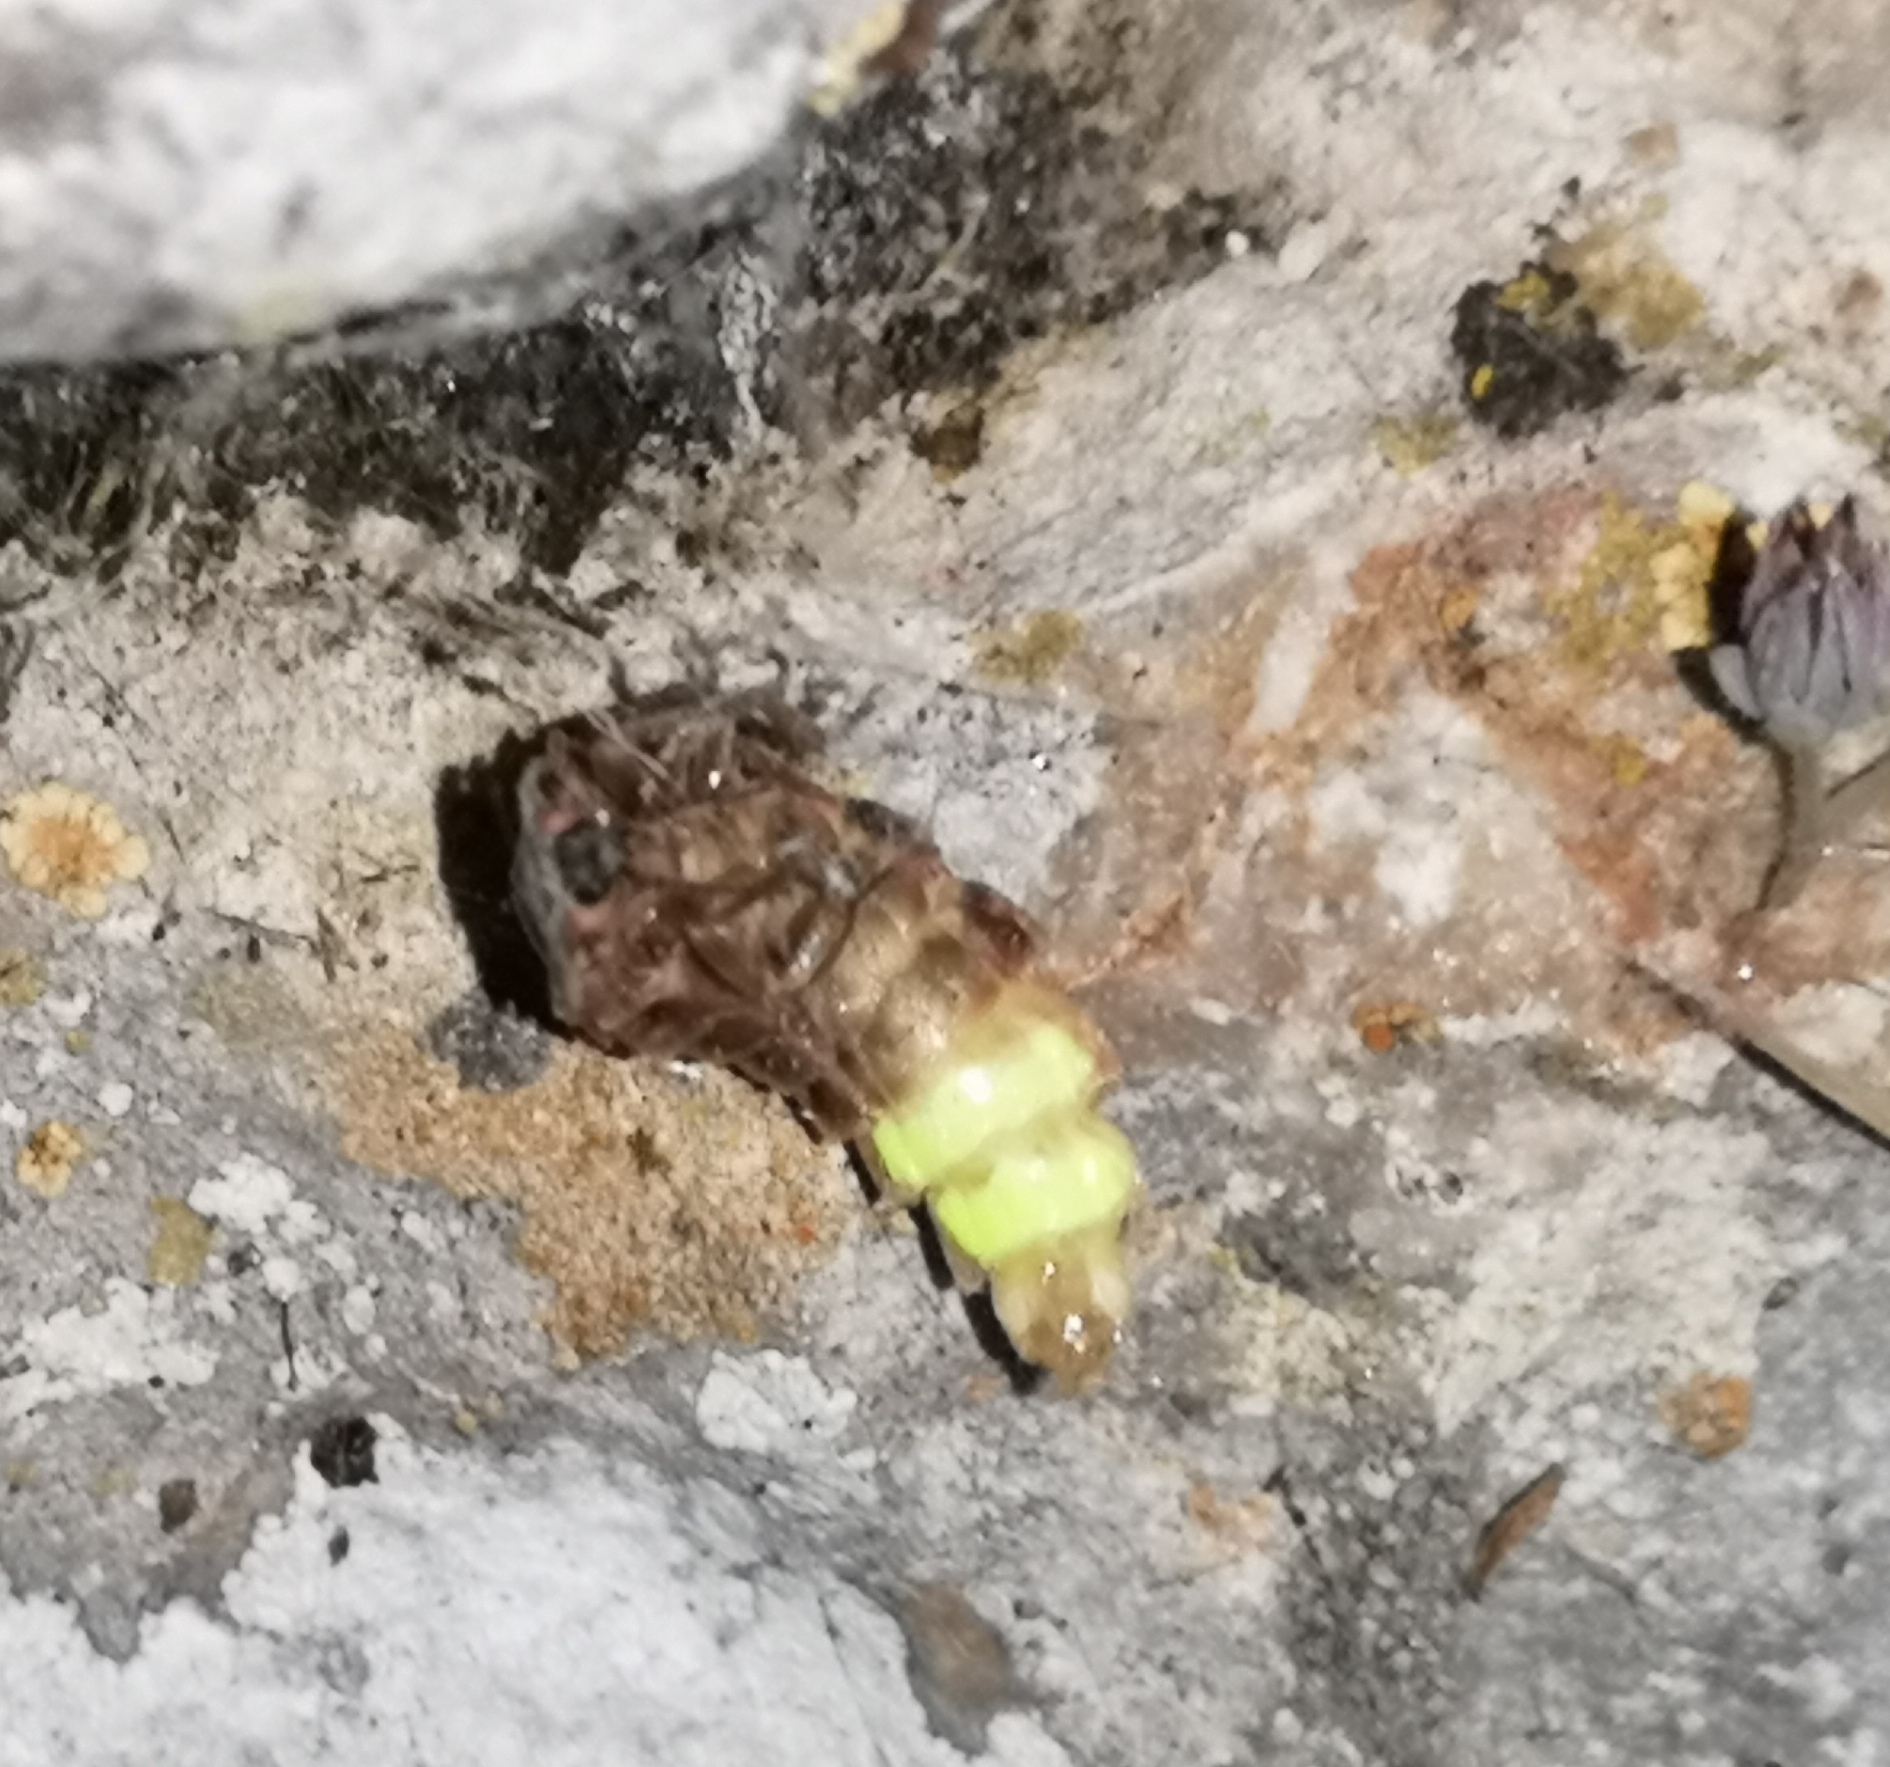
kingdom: Animalia
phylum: Arthropoda
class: Insecta
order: Coleoptera
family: Lampyridae
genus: Lampyris
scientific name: Lampyris iberica
